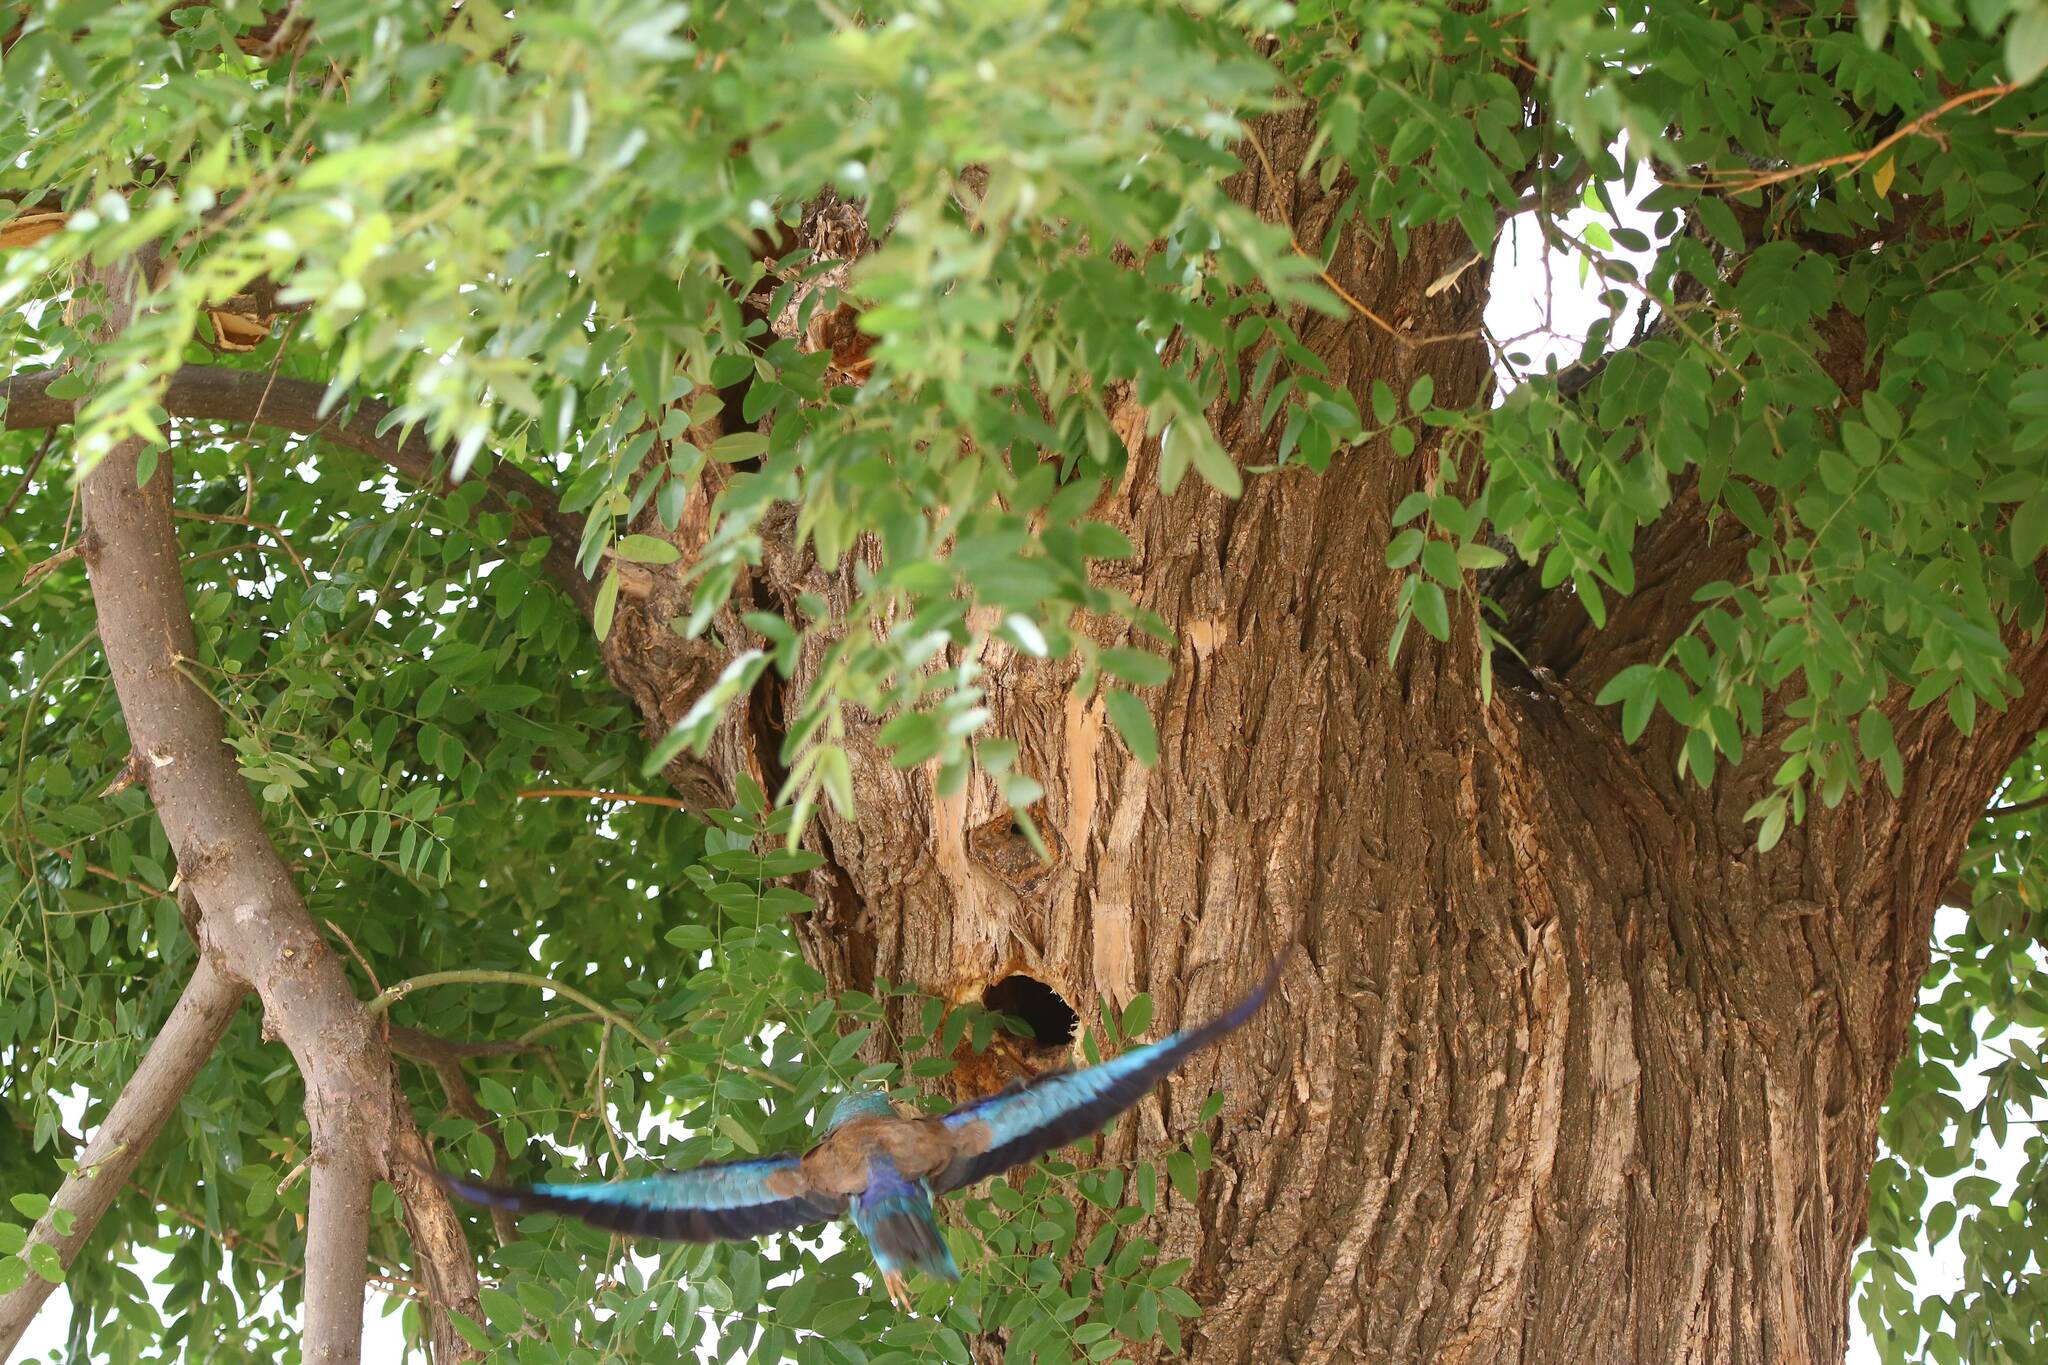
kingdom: Animalia
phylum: Chordata
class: Aves
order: Coraciiformes
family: Coraciidae
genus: Coracias
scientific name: Coracias garrulus
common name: European roller
